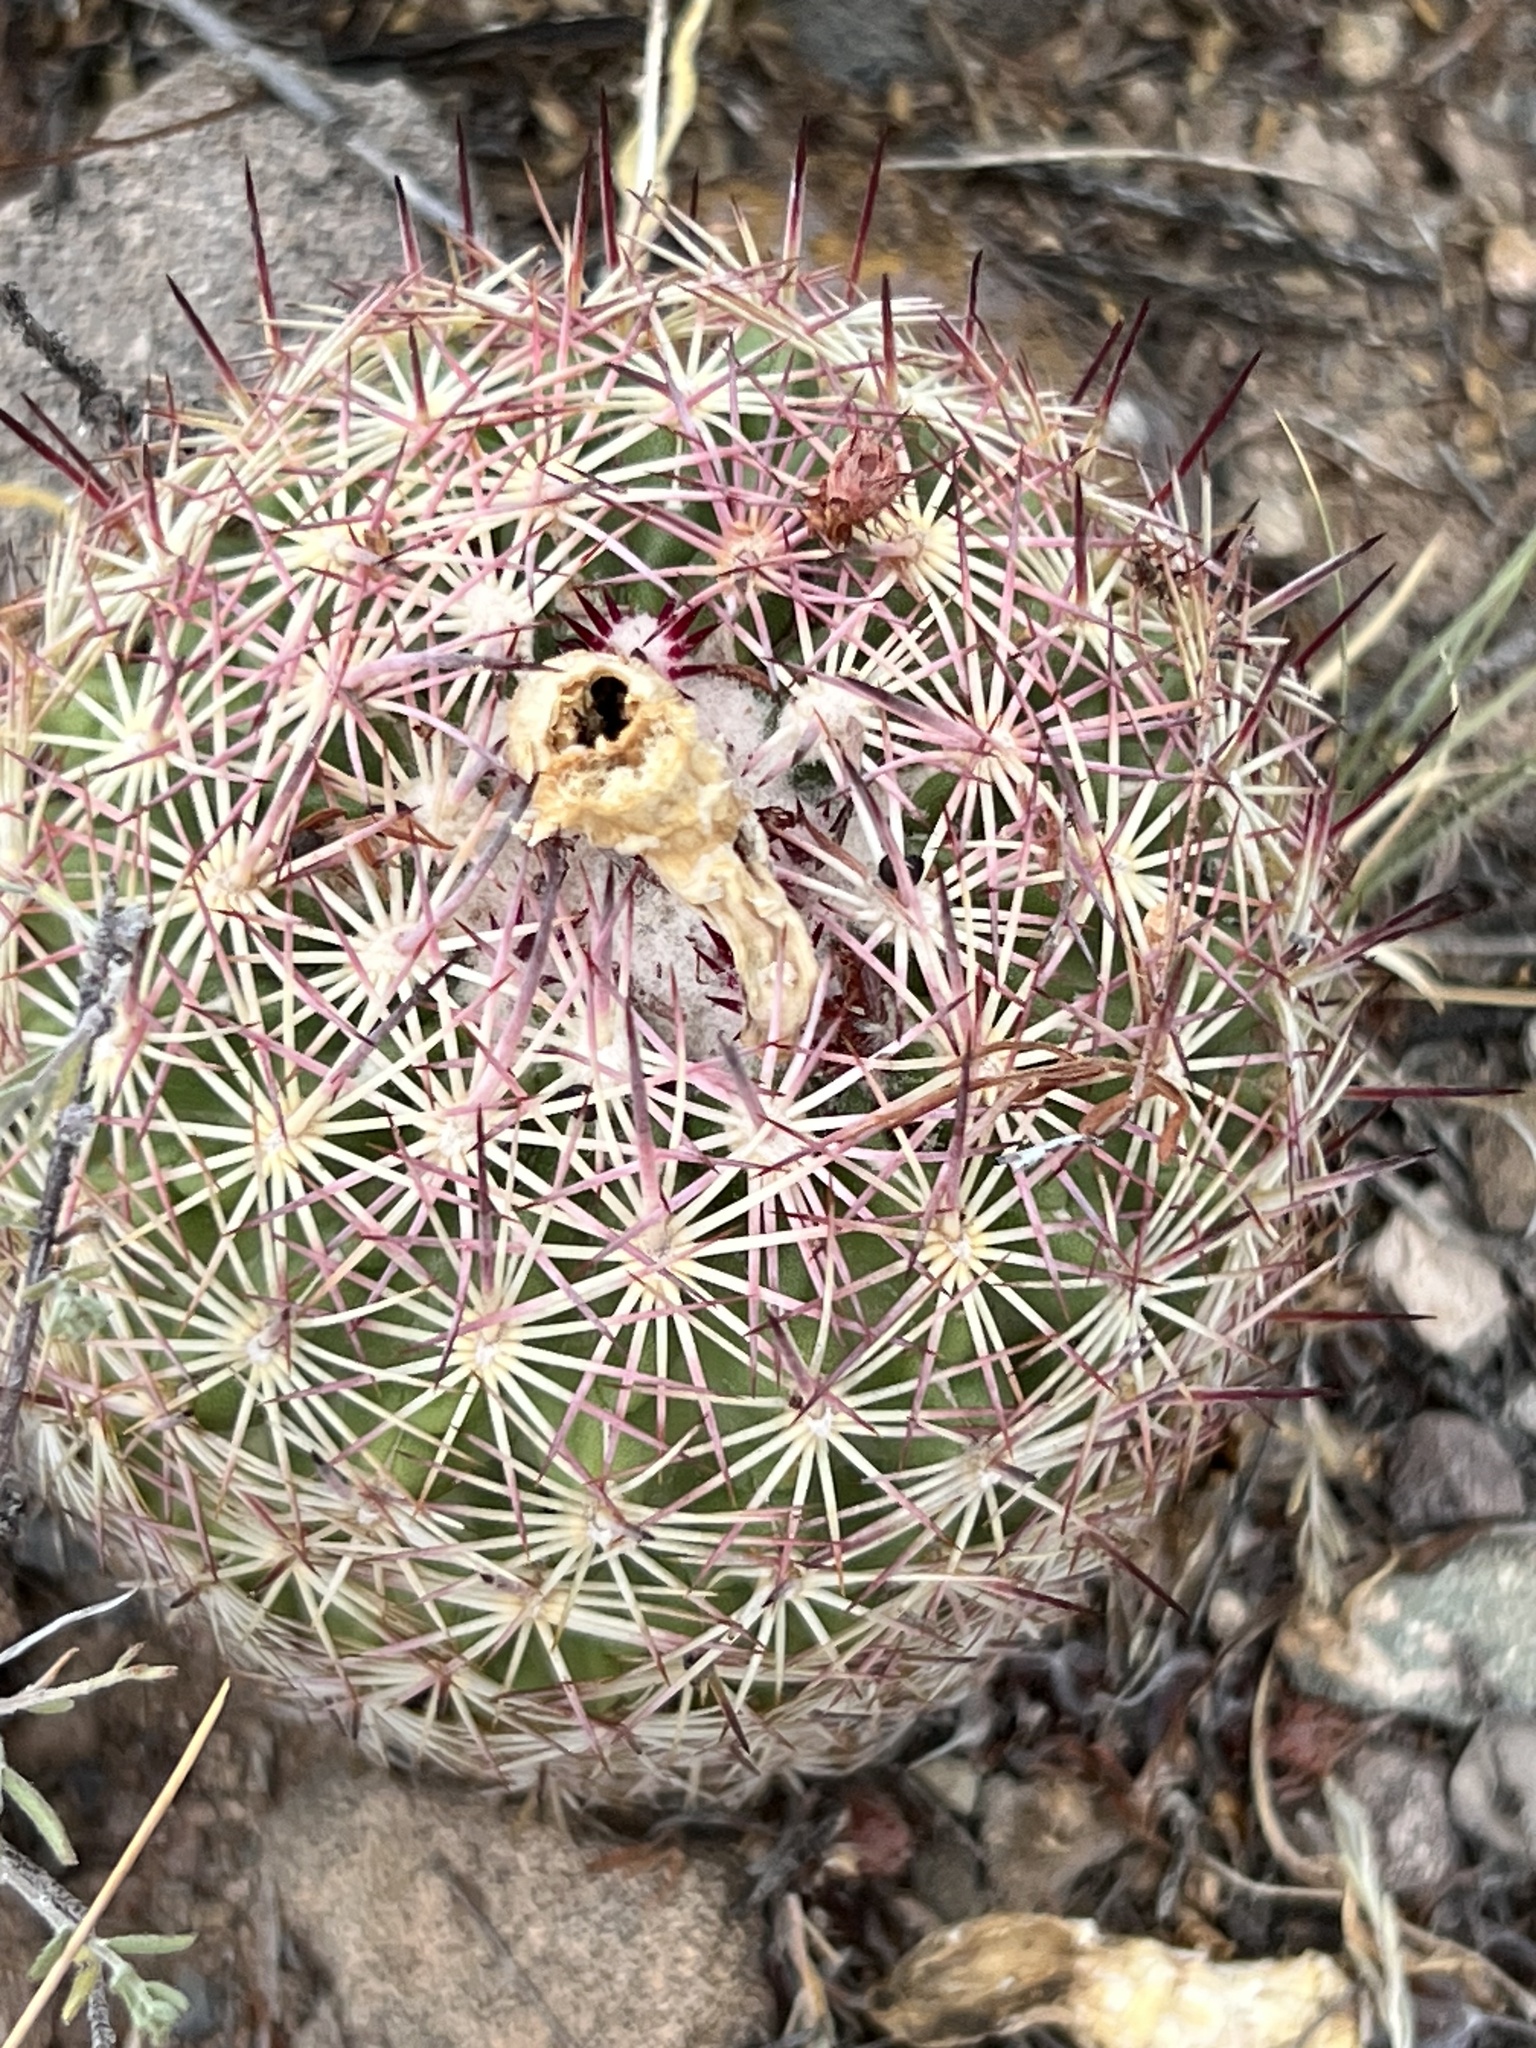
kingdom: Plantae
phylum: Tracheophyta
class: Magnoliopsida
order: Caryophyllales
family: Cactaceae
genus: Sclerocactus
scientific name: Sclerocactus johnsonii
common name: Eight-spine fishhook cactus
